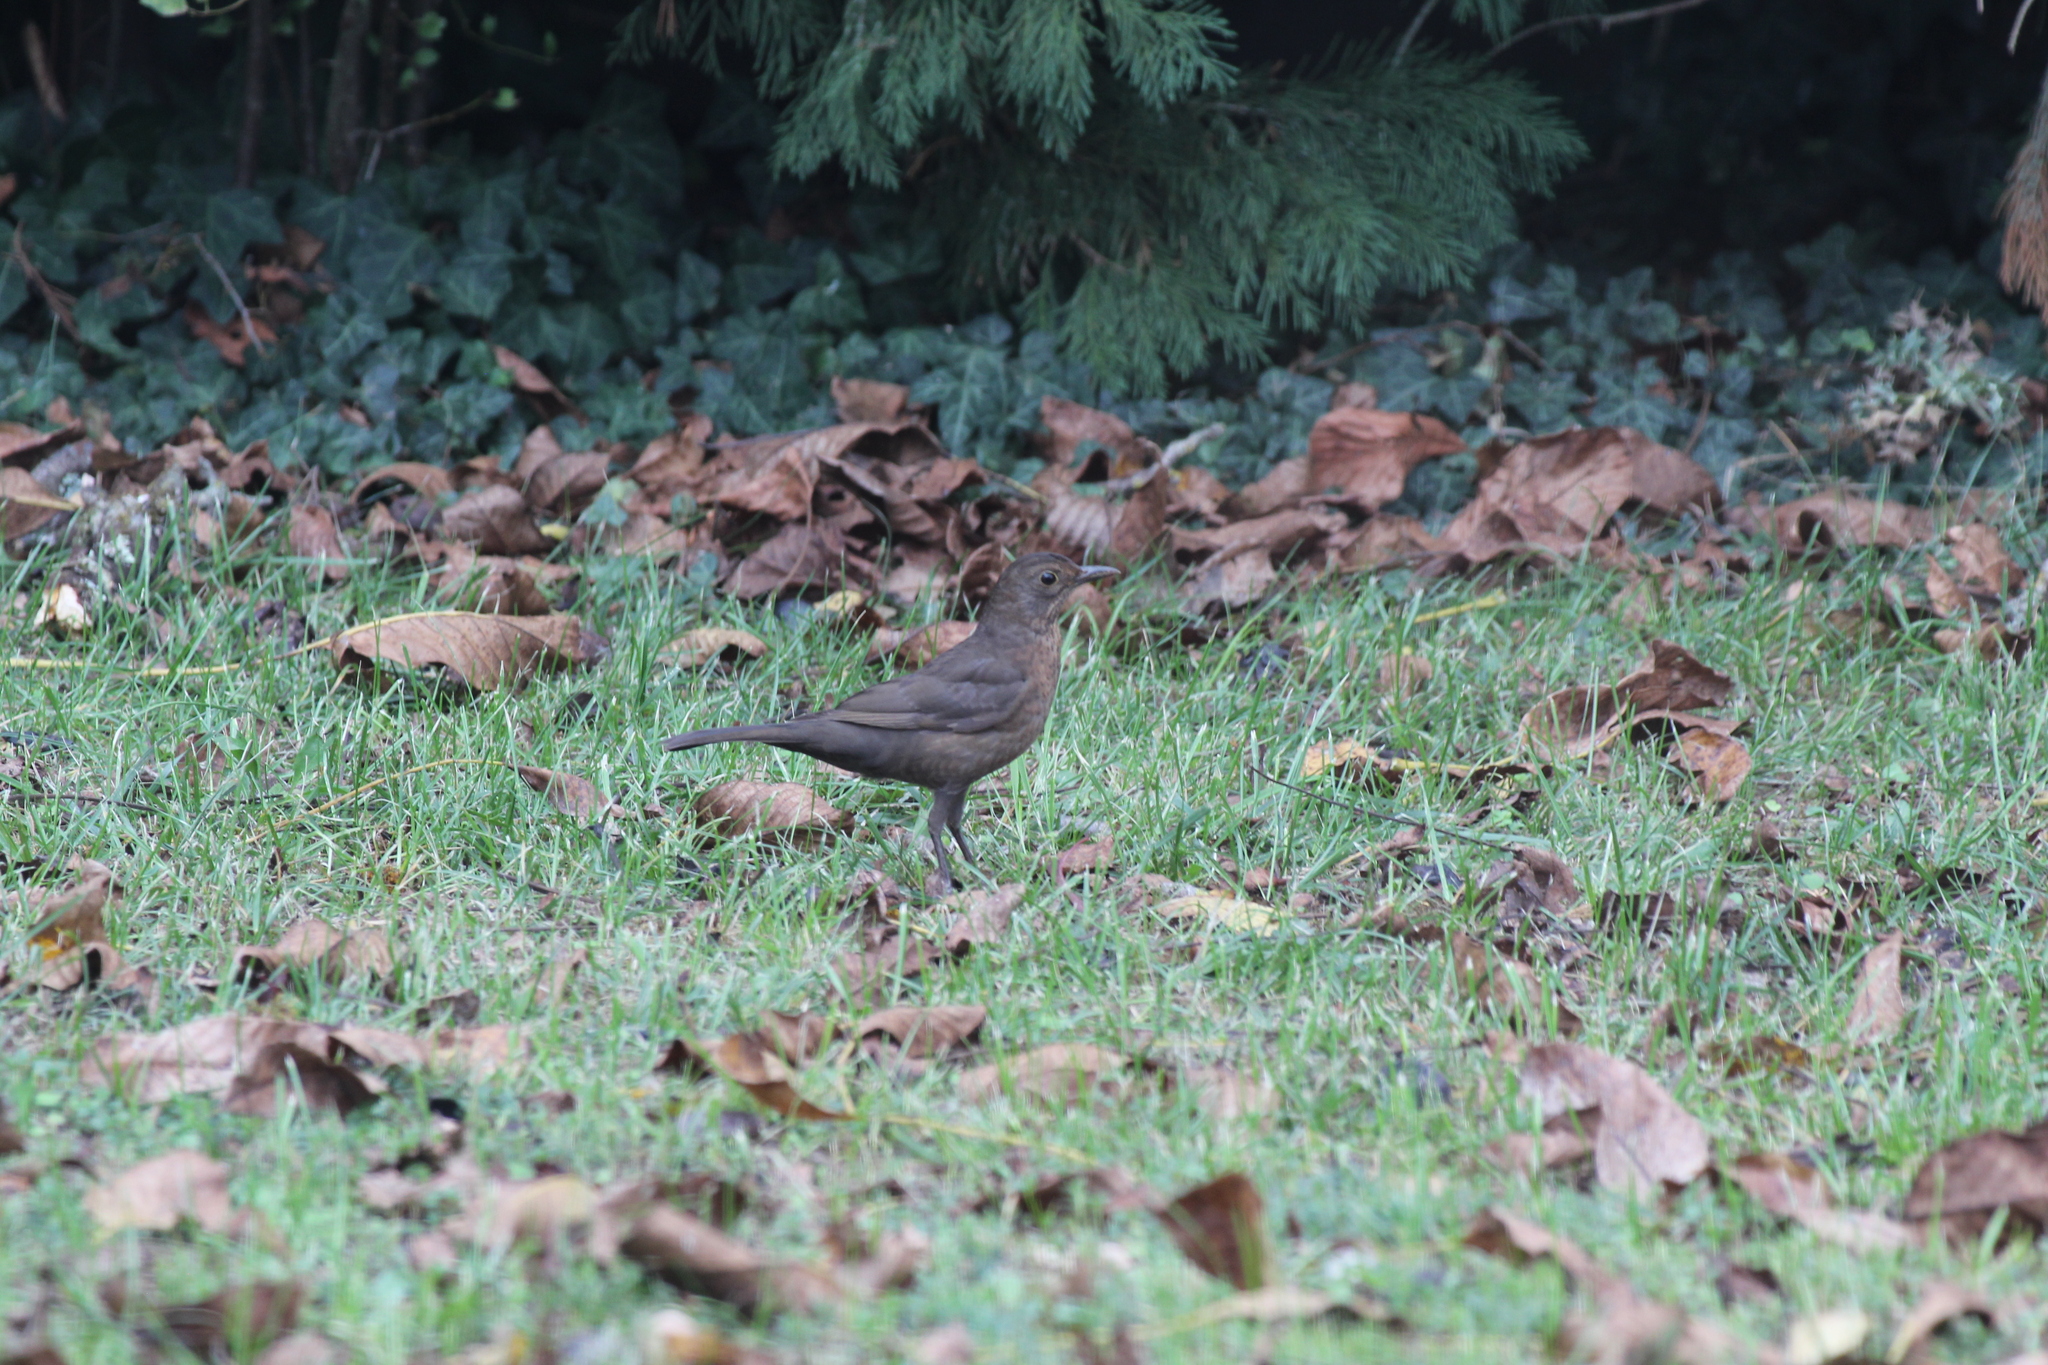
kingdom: Animalia
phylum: Chordata
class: Aves
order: Passeriformes
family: Turdidae
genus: Turdus
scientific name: Turdus merula
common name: Common blackbird
